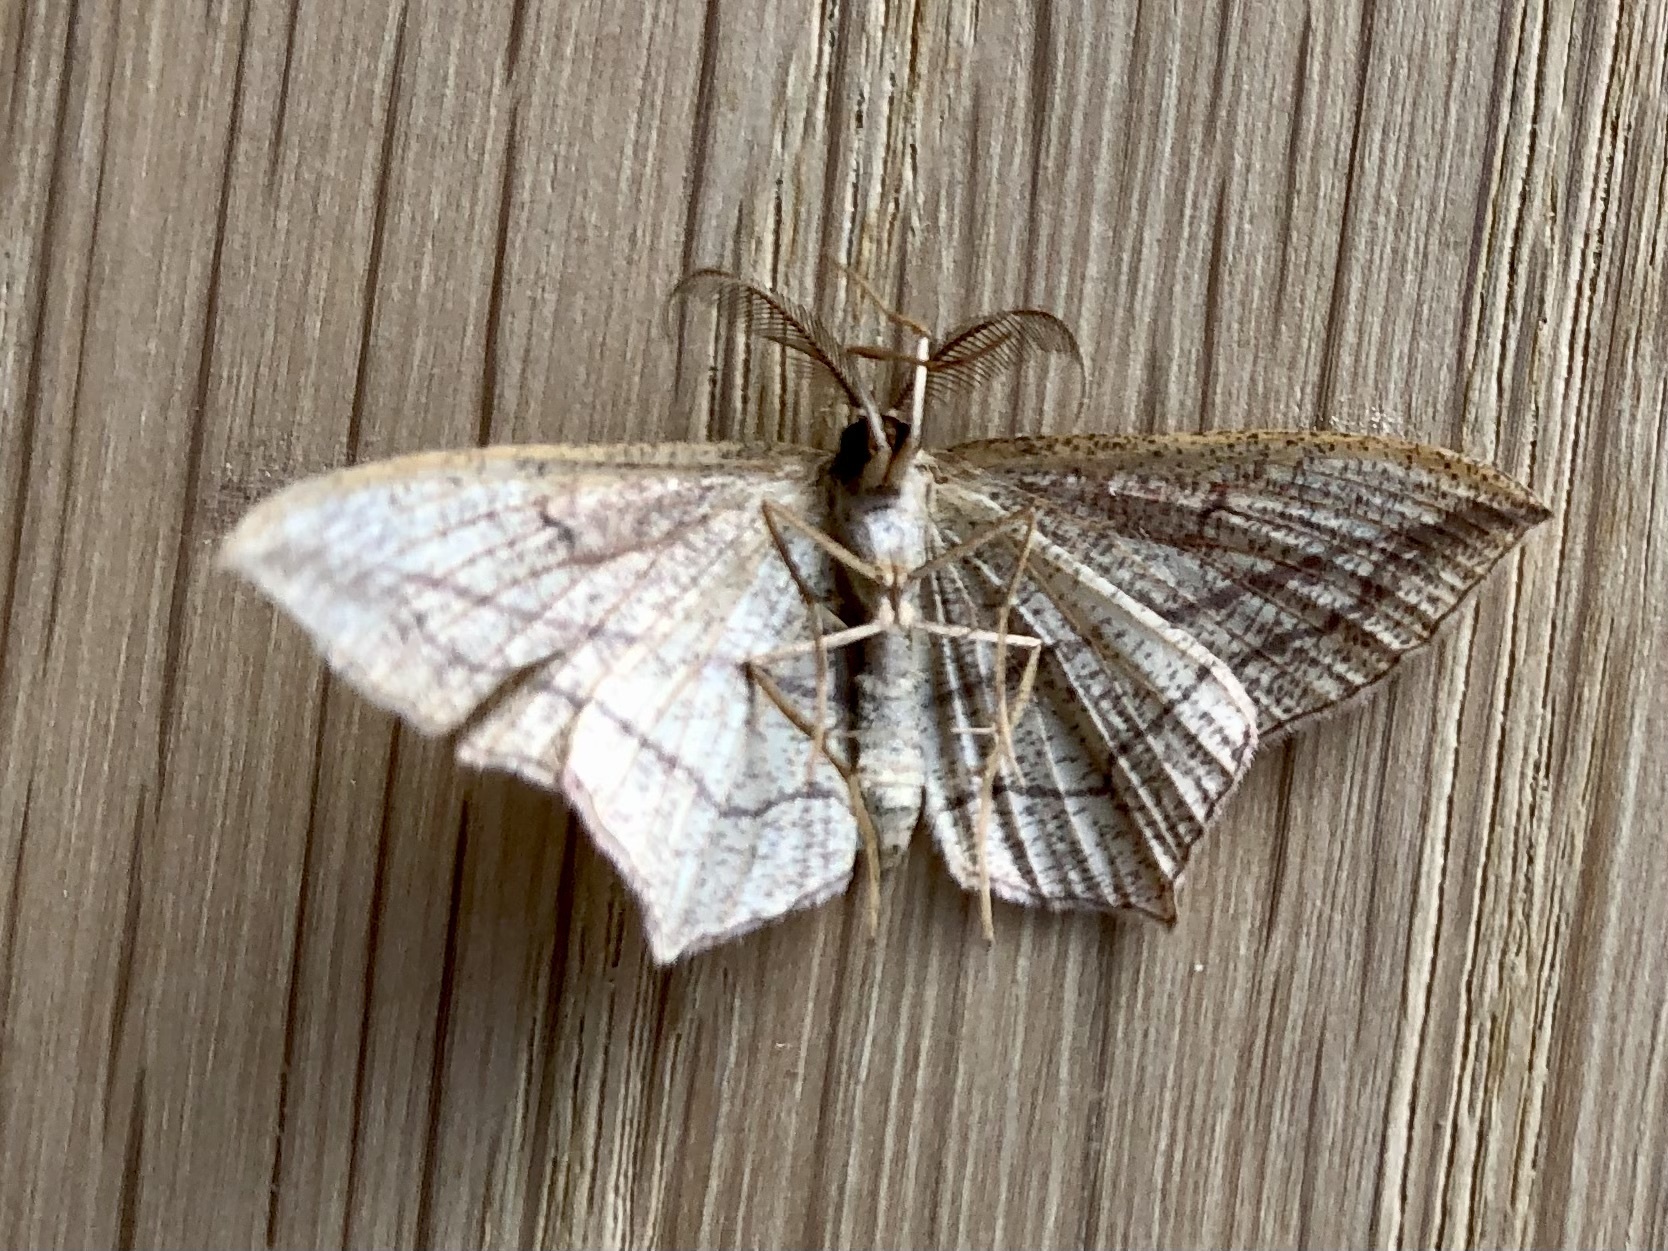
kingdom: Animalia
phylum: Arthropoda
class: Insecta
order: Lepidoptera
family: Geometridae
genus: Timandra
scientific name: Timandra comae
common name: Blood-vein
